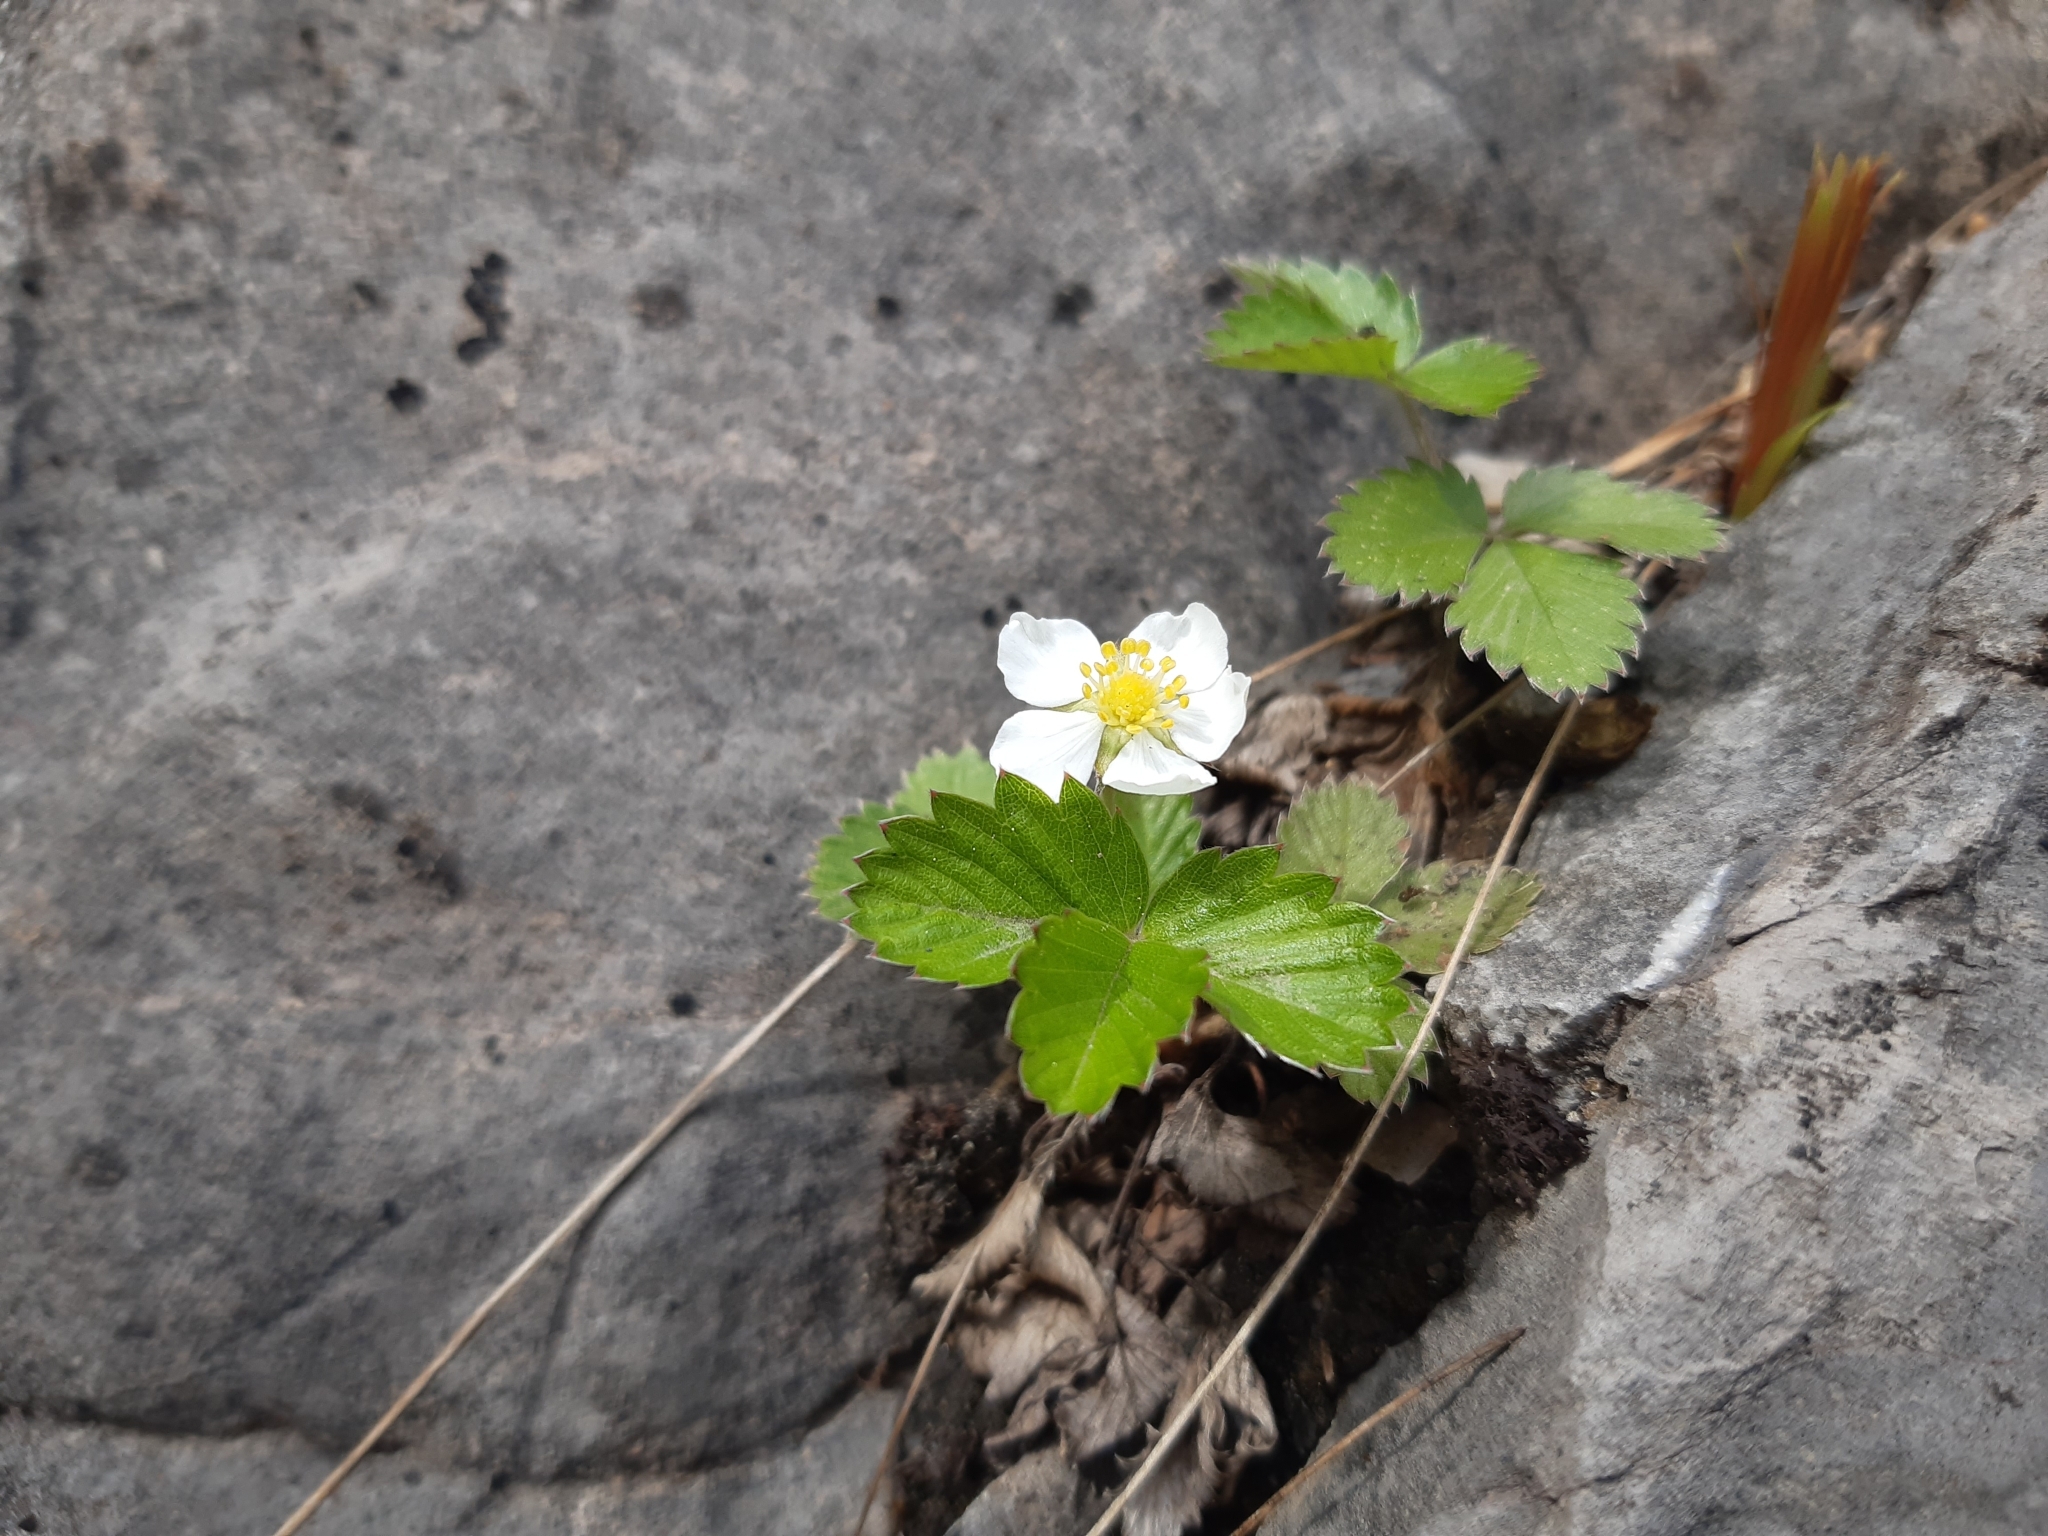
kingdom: Plantae
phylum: Tracheophyta
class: Magnoliopsida
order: Rosales
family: Rosaceae
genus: Fragaria
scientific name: Fragaria vesca
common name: Wild strawberry
